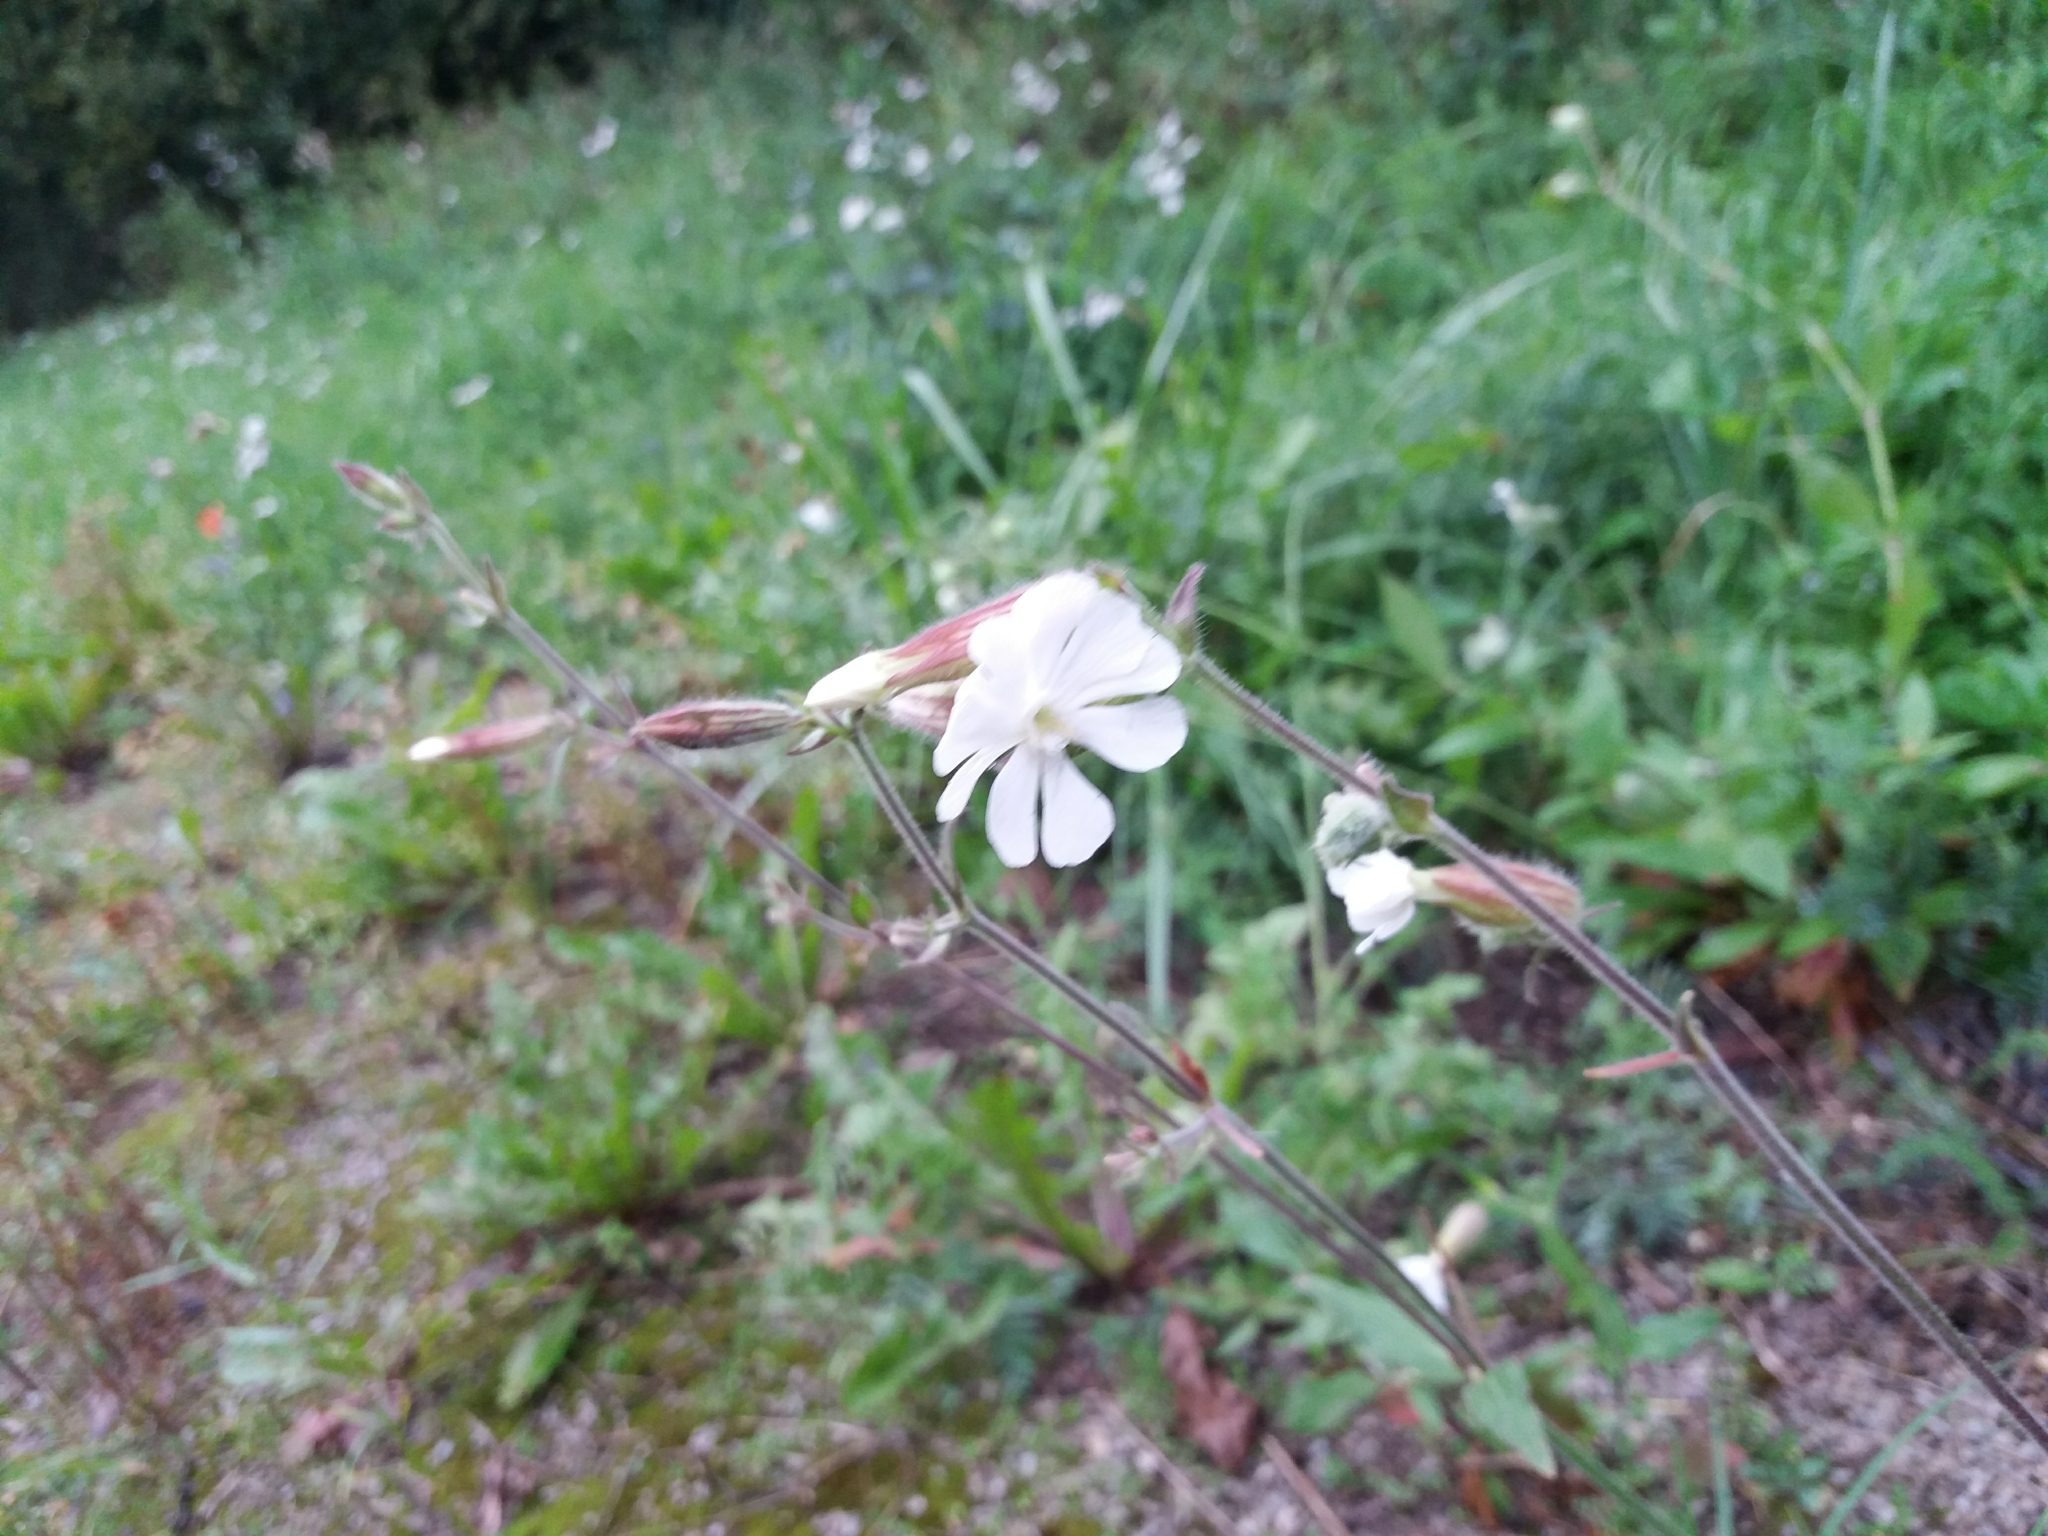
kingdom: Plantae
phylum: Tracheophyta
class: Magnoliopsida
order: Caryophyllales
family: Caryophyllaceae
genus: Silene
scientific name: Silene latifolia
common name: White campion
